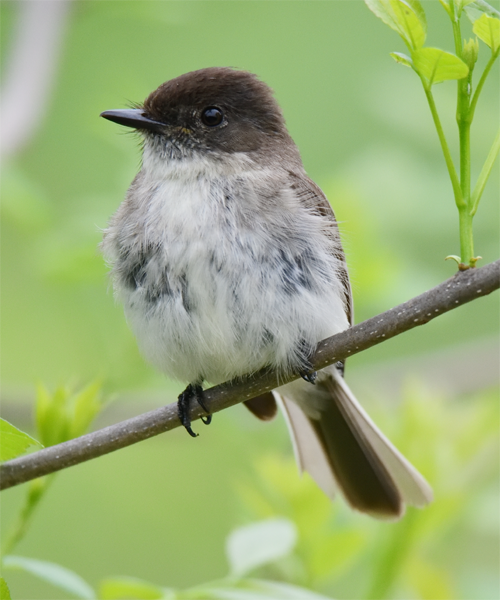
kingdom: Animalia
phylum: Chordata
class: Aves
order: Passeriformes
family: Tyrannidae
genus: Sayornis
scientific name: Sayornis phoebe
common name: Eastern phoebe
